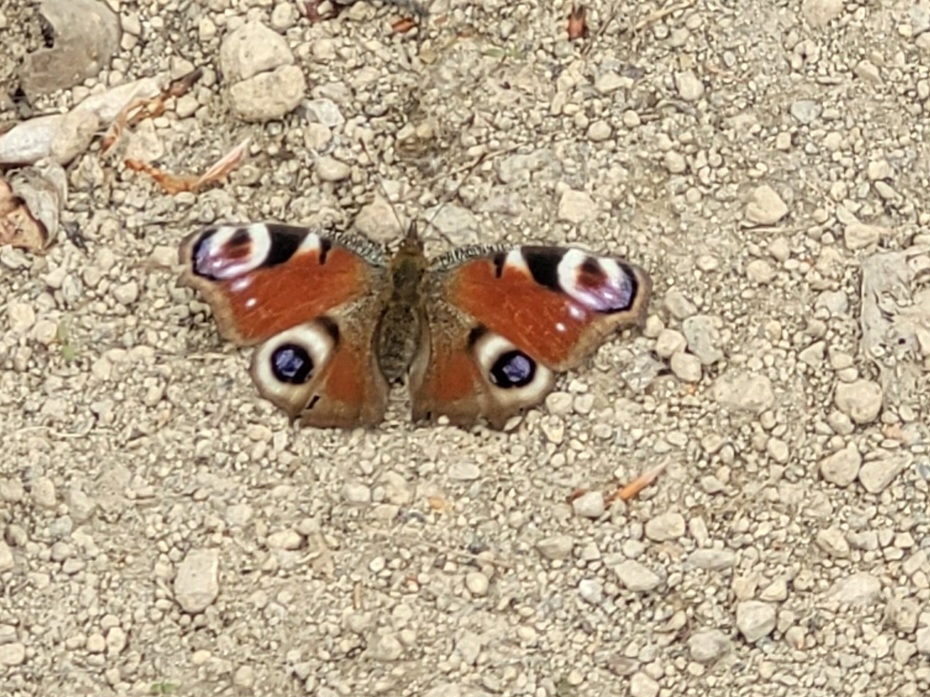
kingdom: Animalia
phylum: Arthropoda
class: Insecta
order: Lepidoptera
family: Nymphalidae
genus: Aglais
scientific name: Aglais io
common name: Peacock
